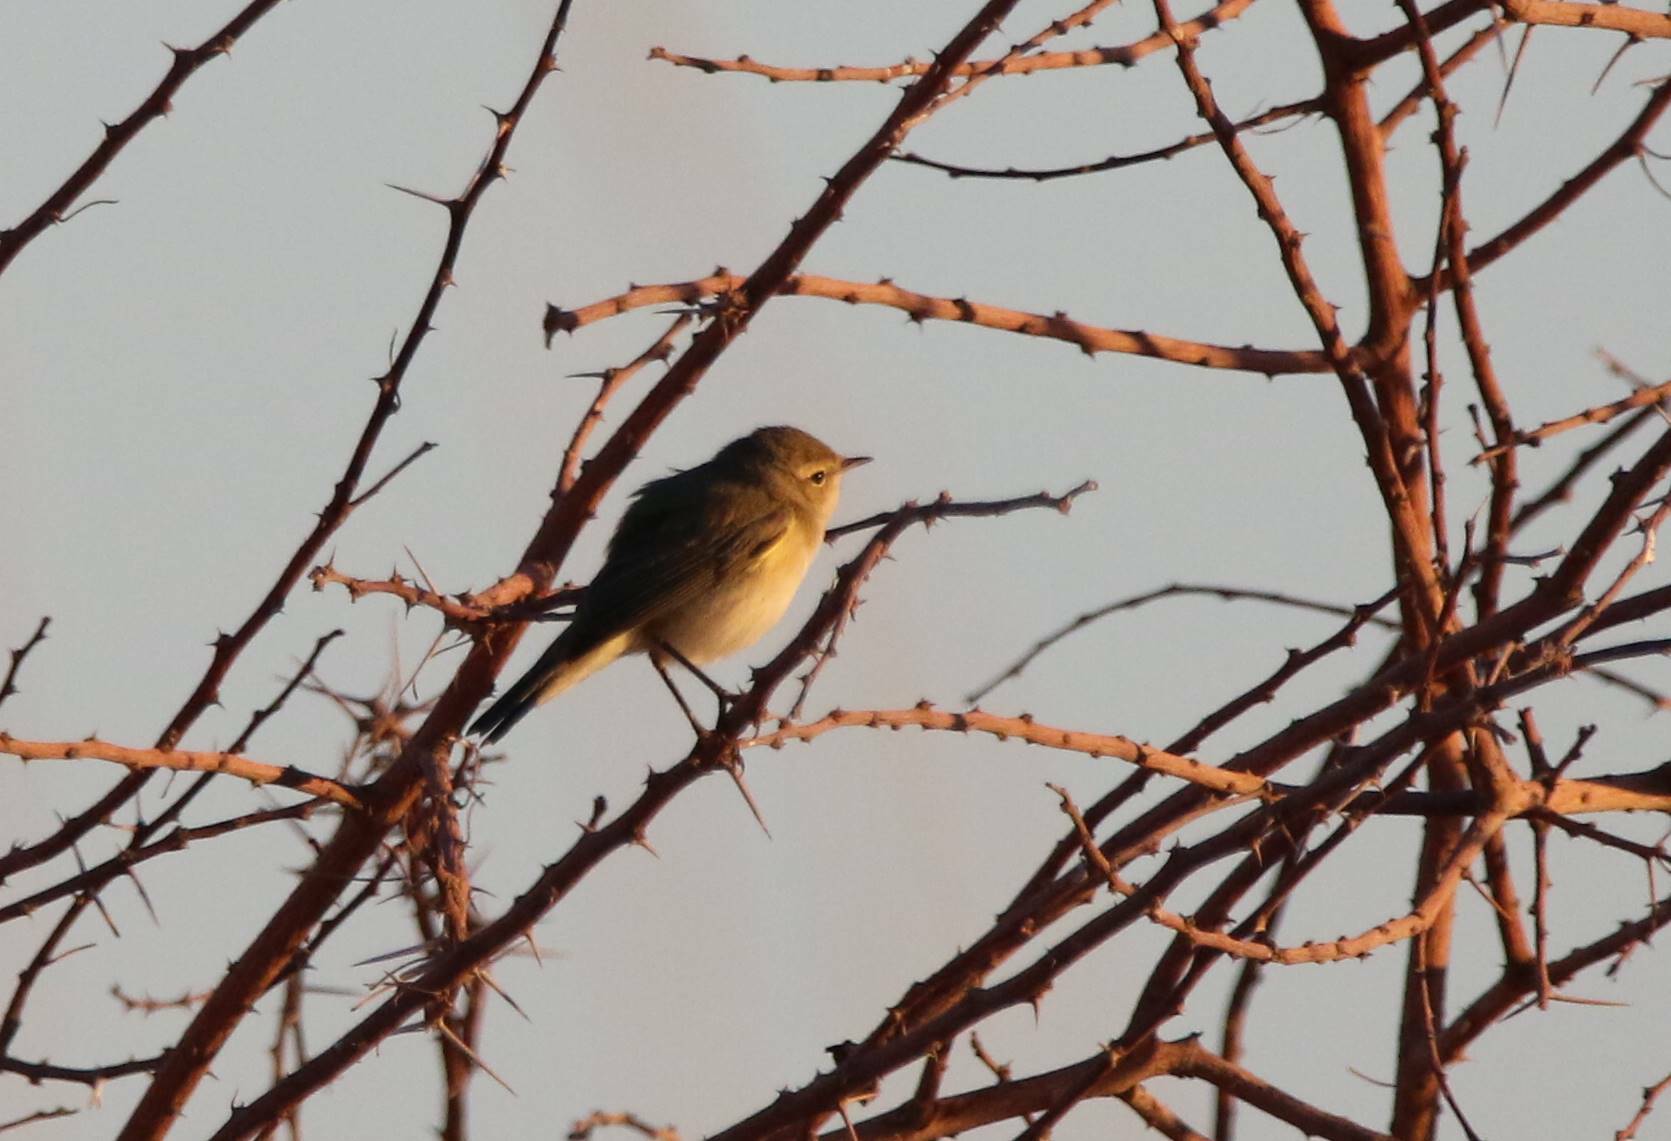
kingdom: Animalia
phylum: Chordata
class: Aves
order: Passeriformes
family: Phylloscopidae
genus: Phylloscopus
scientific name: Phylloscopus collybita
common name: Common chiffchaff
